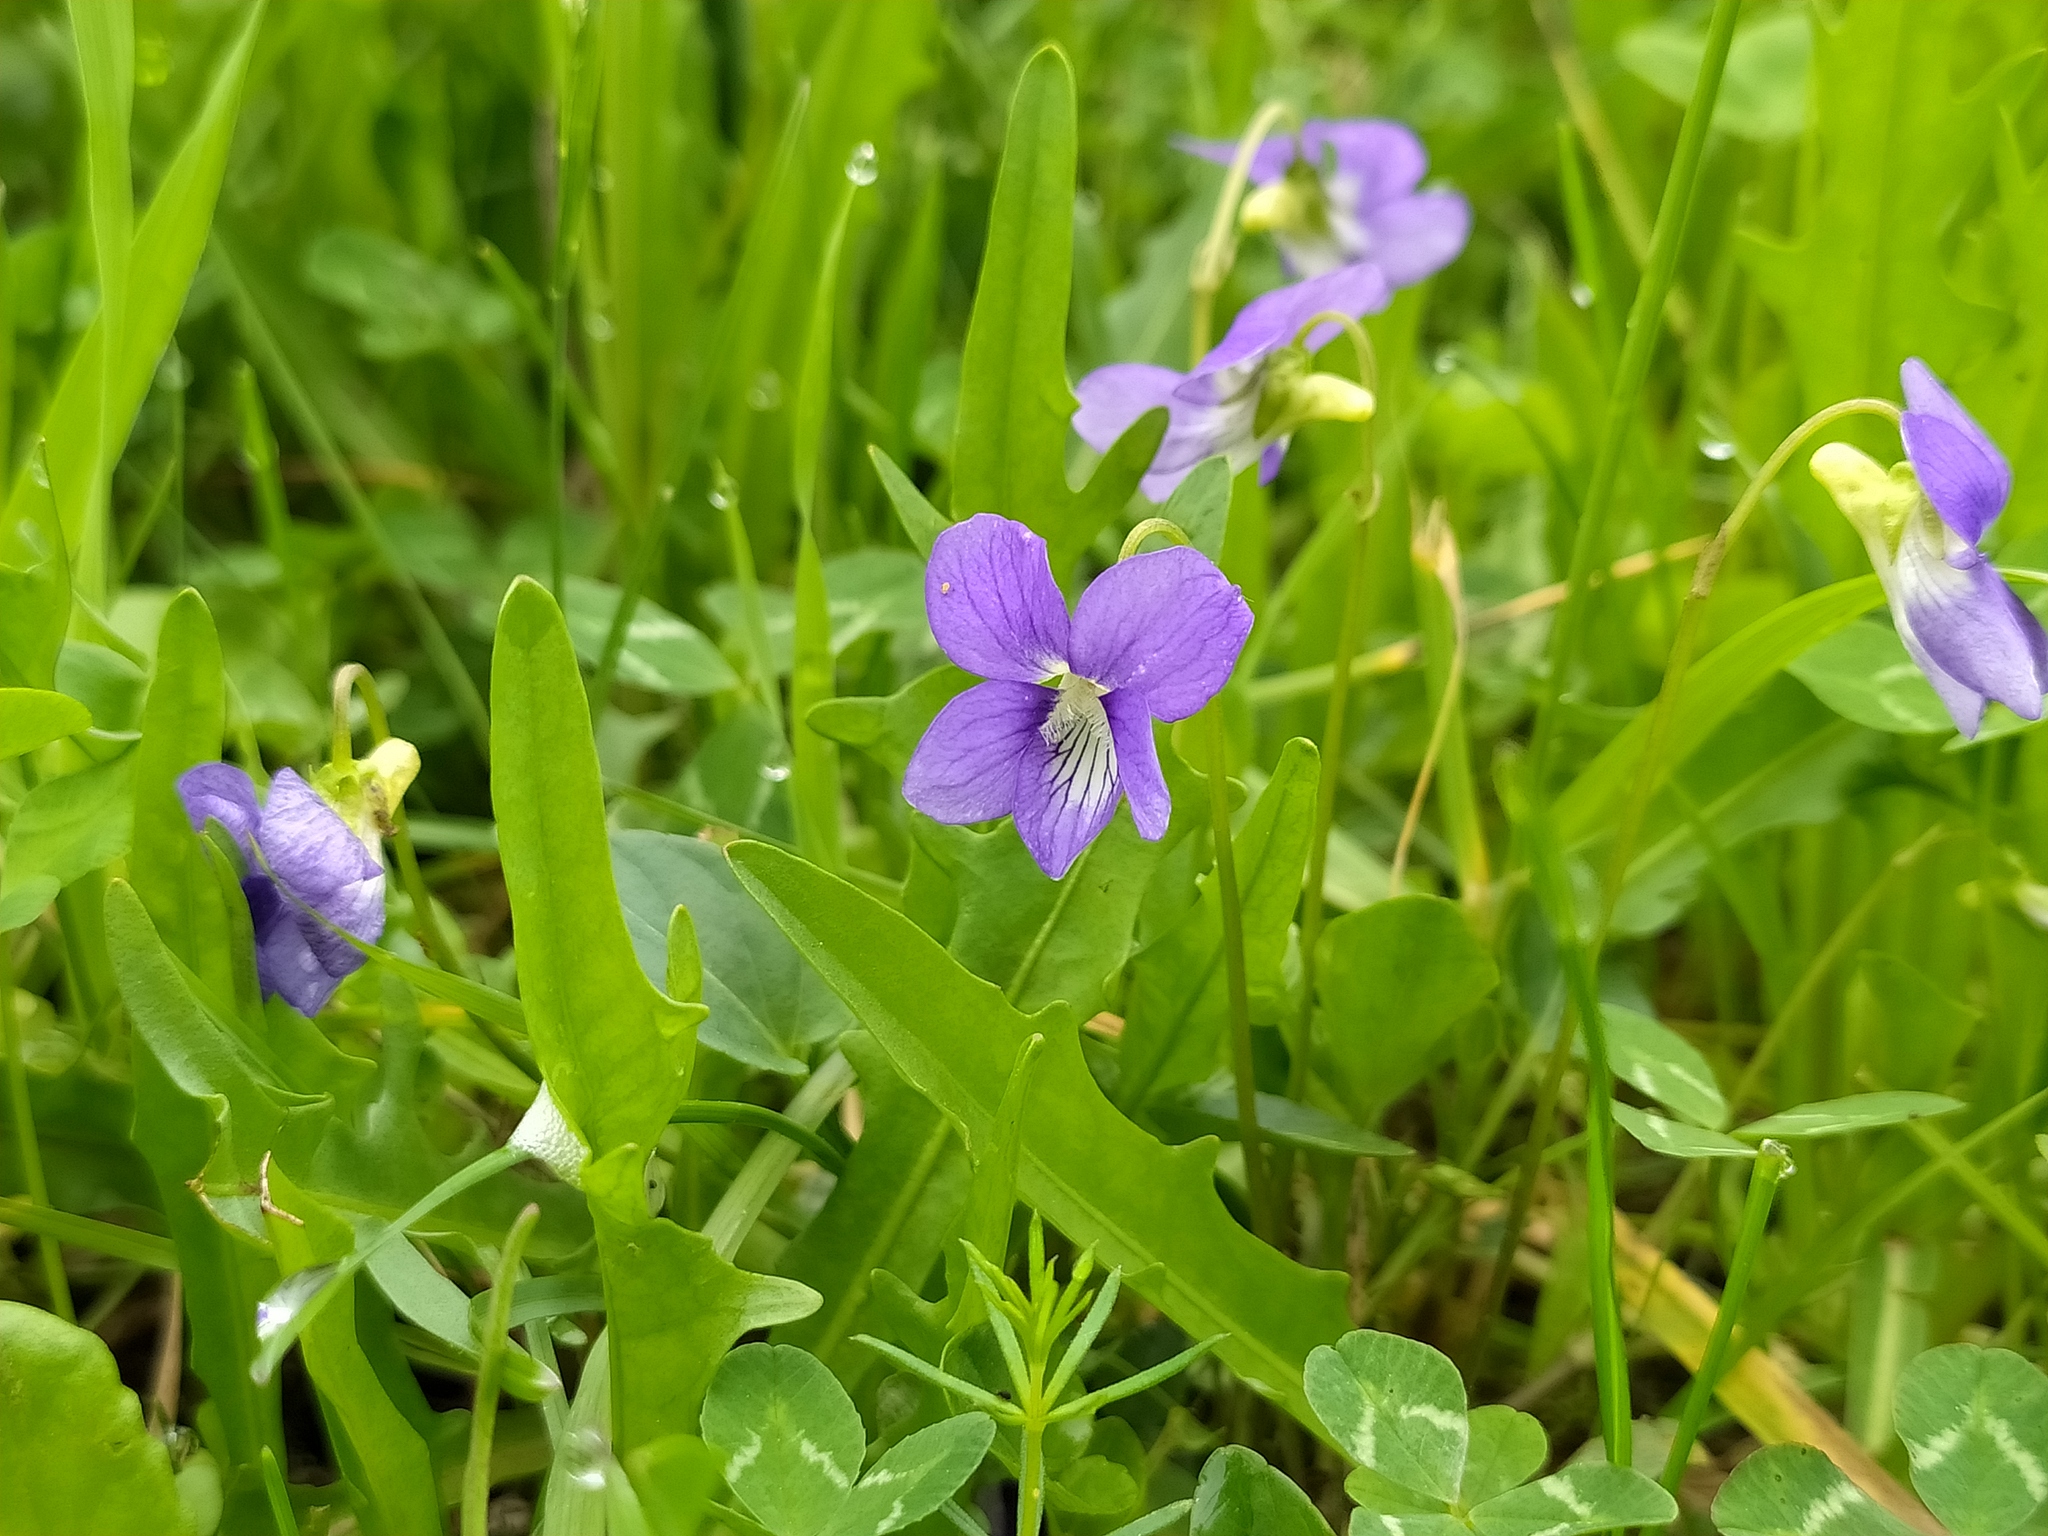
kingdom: Plantae
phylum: Tracheophyta
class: Magnoliopsida
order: Malpighiales
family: Violaceae
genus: Viola
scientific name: Viola canina
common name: Heath dog-violet
